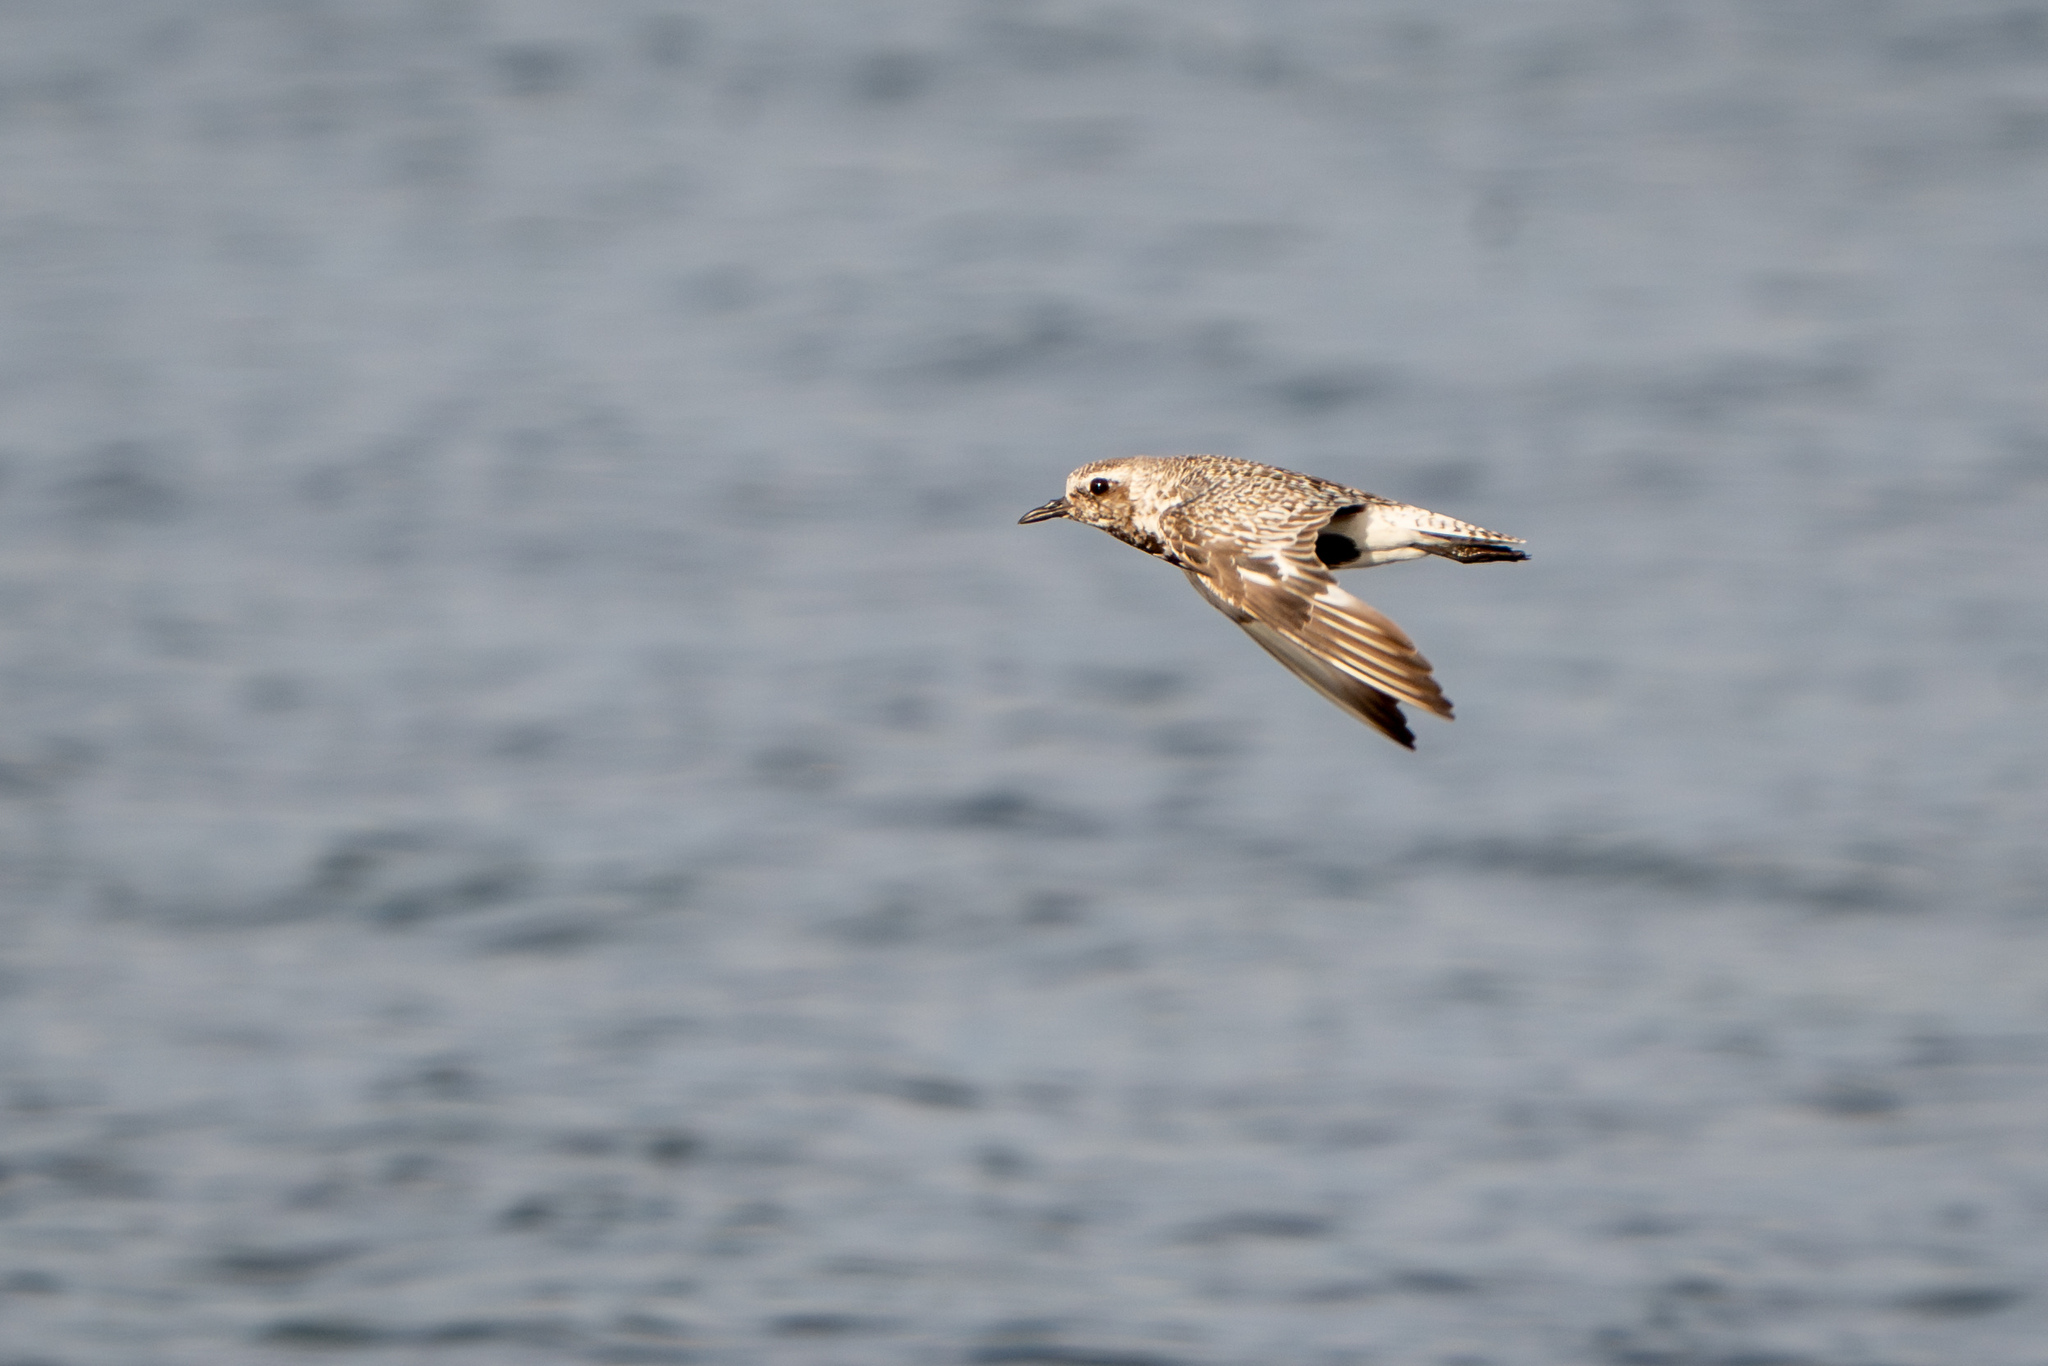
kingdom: Animalia
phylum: Chordata
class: Aves
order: Charadriiformes
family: Charadriidae
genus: Pluvialis
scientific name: Pluvialis squatarola
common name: Grey plover
